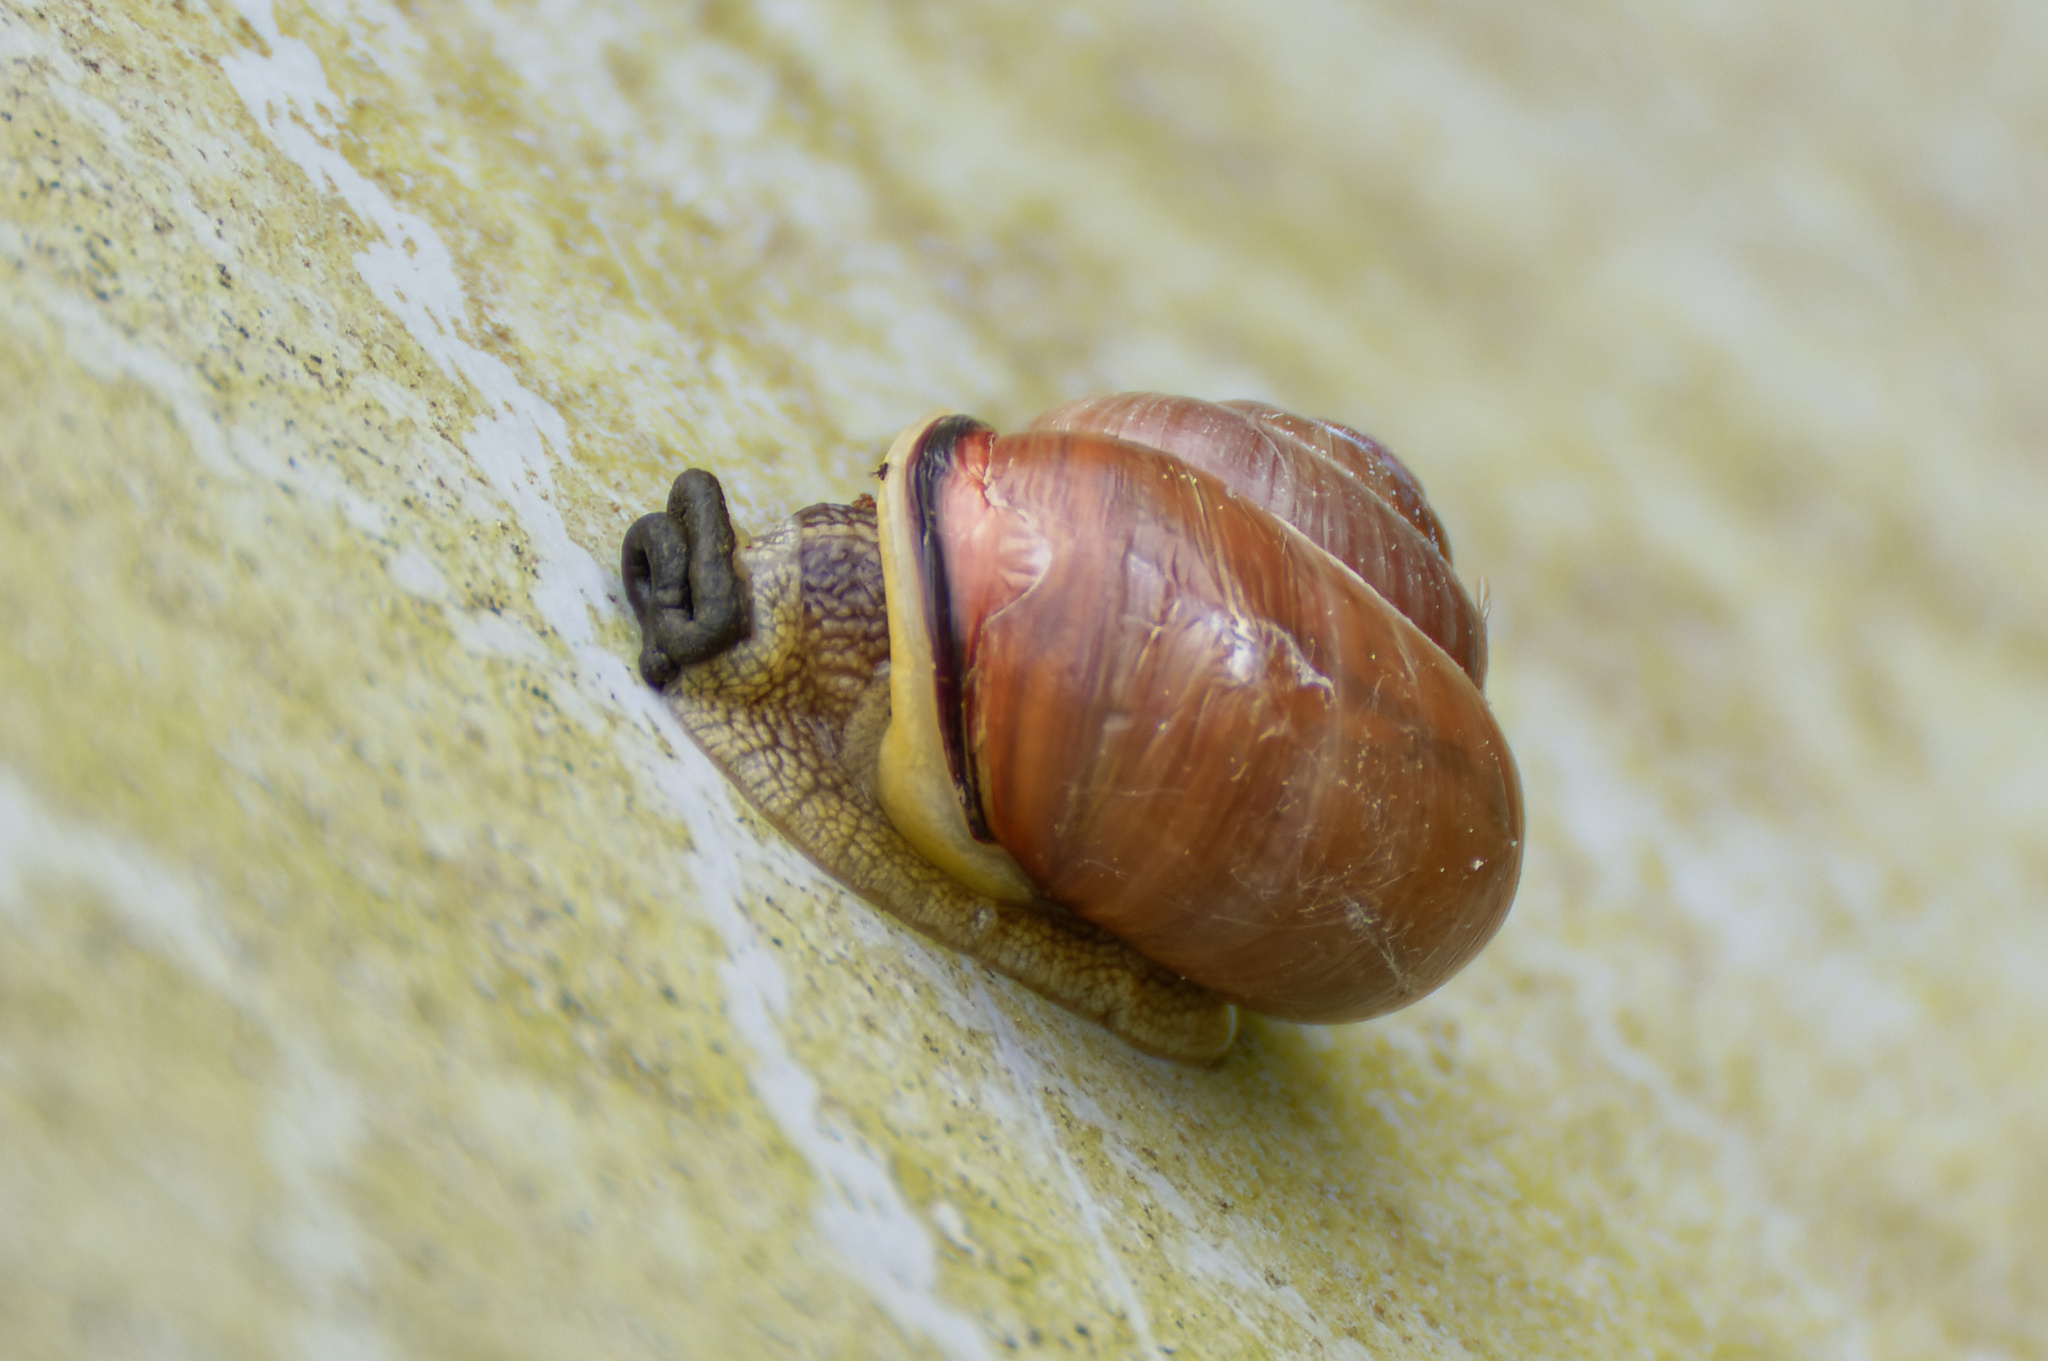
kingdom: Animalia
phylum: Mollusca
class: Gastropoda
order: Stylommatophora
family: Helicidae
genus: Cepaea
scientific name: Cepaea nemoralis
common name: Grovesnail
